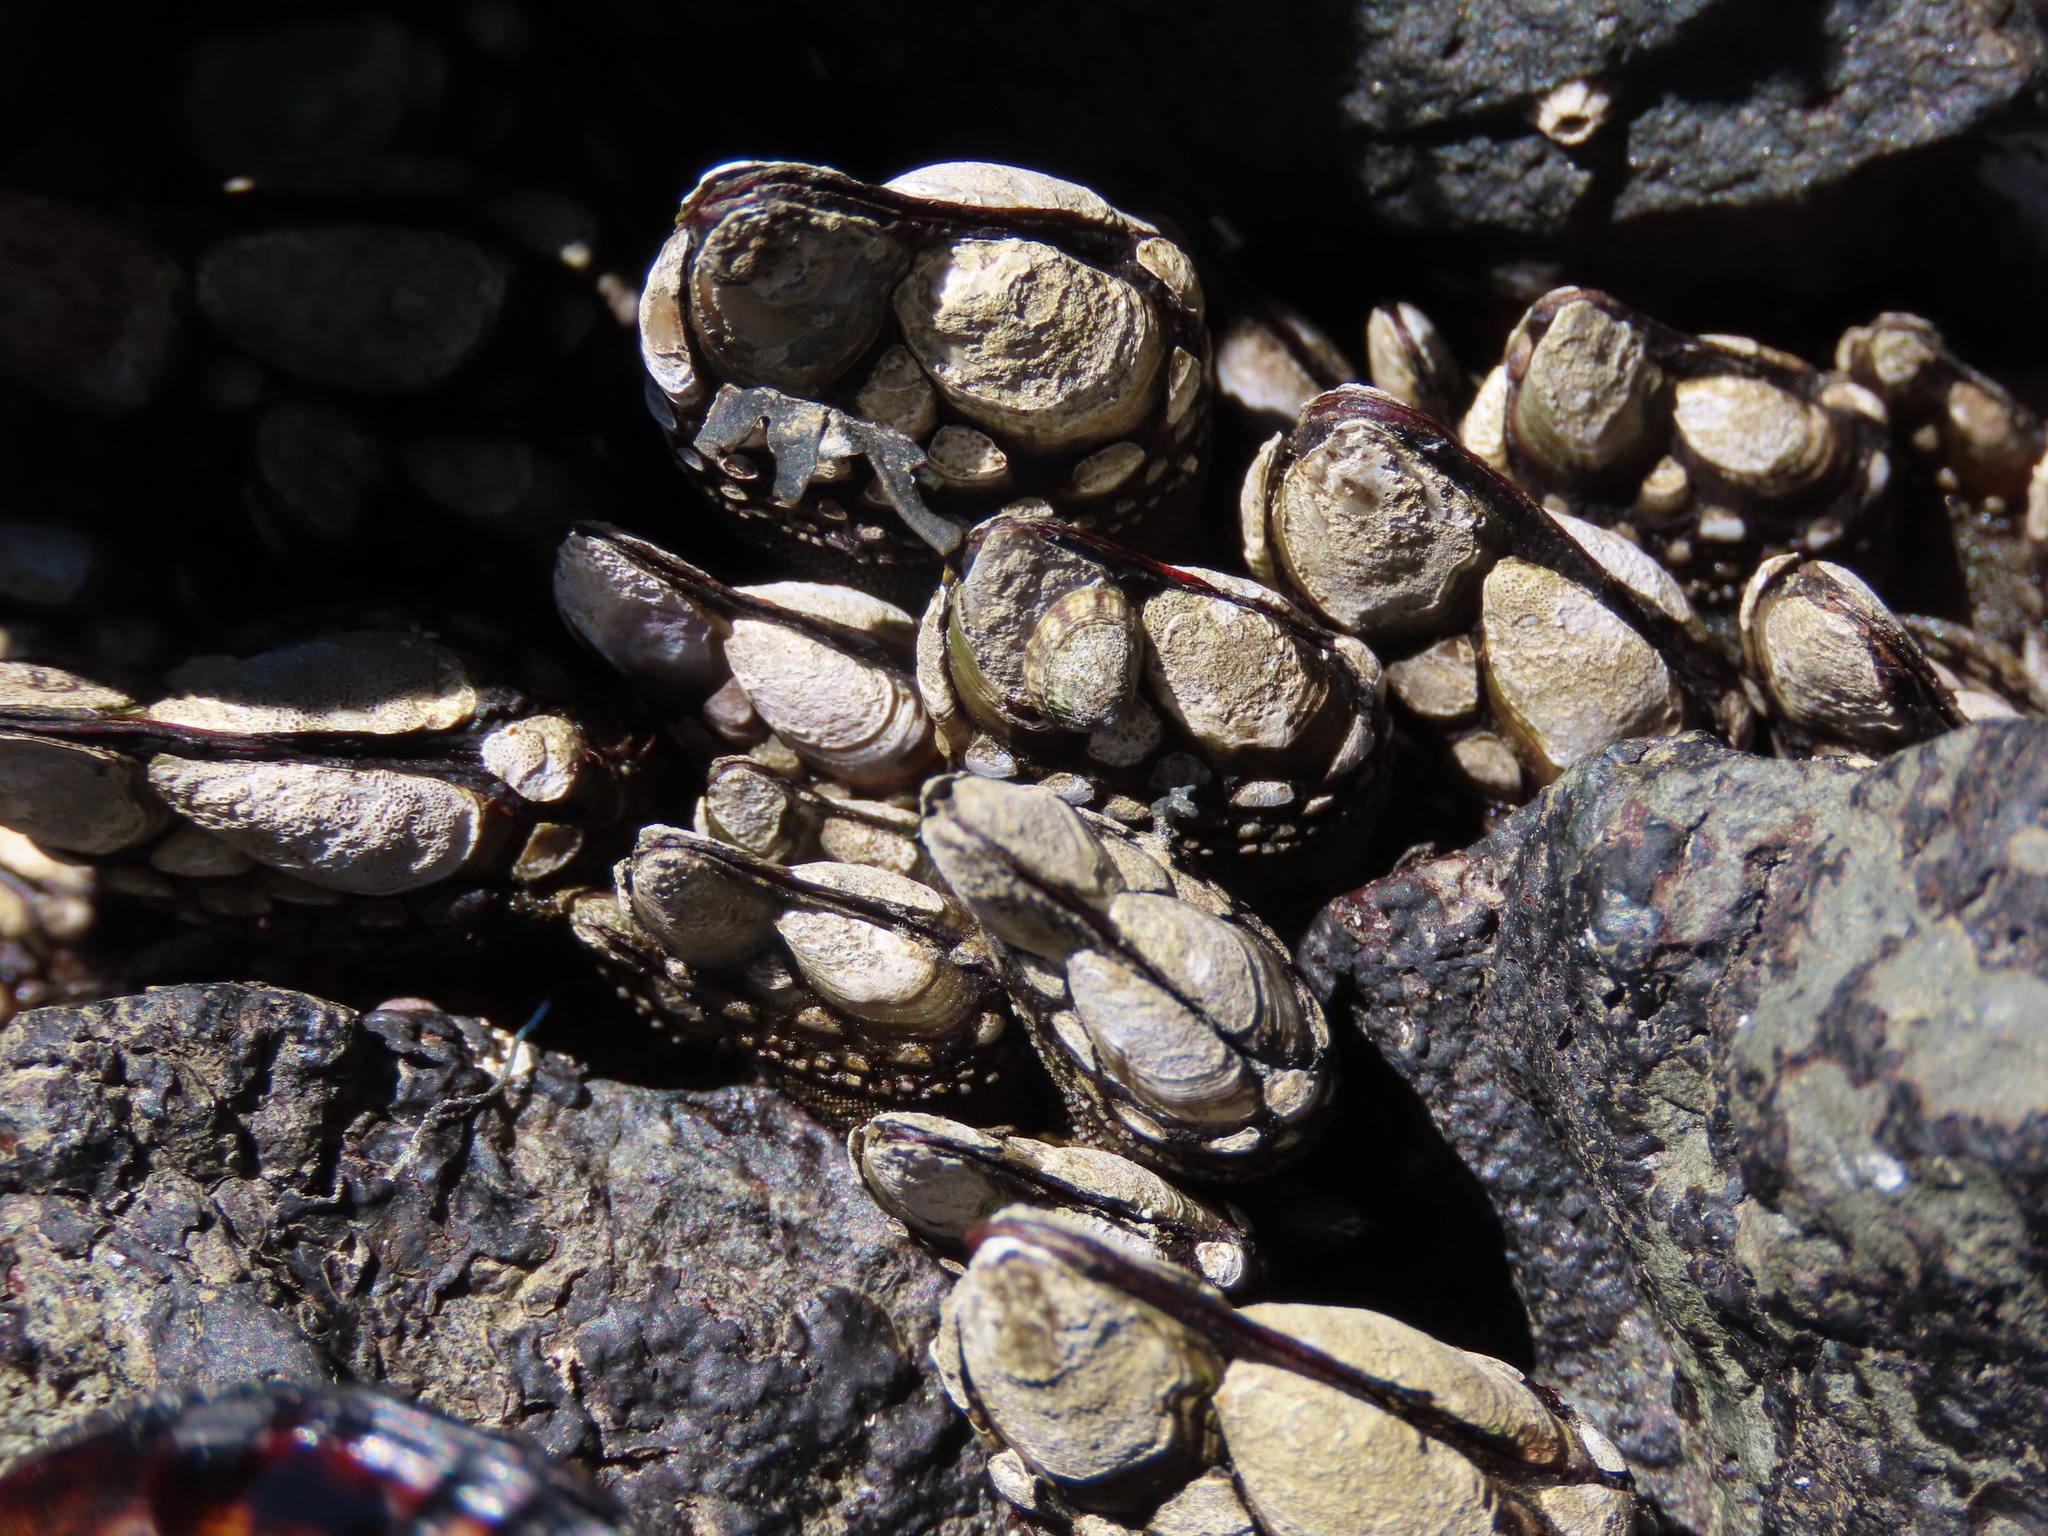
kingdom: Animalia
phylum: Arthropoda
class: Maxillopoda
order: Pedunculata
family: Pollicipedidae
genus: Pollicipes
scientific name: Pollicipes polymerus
